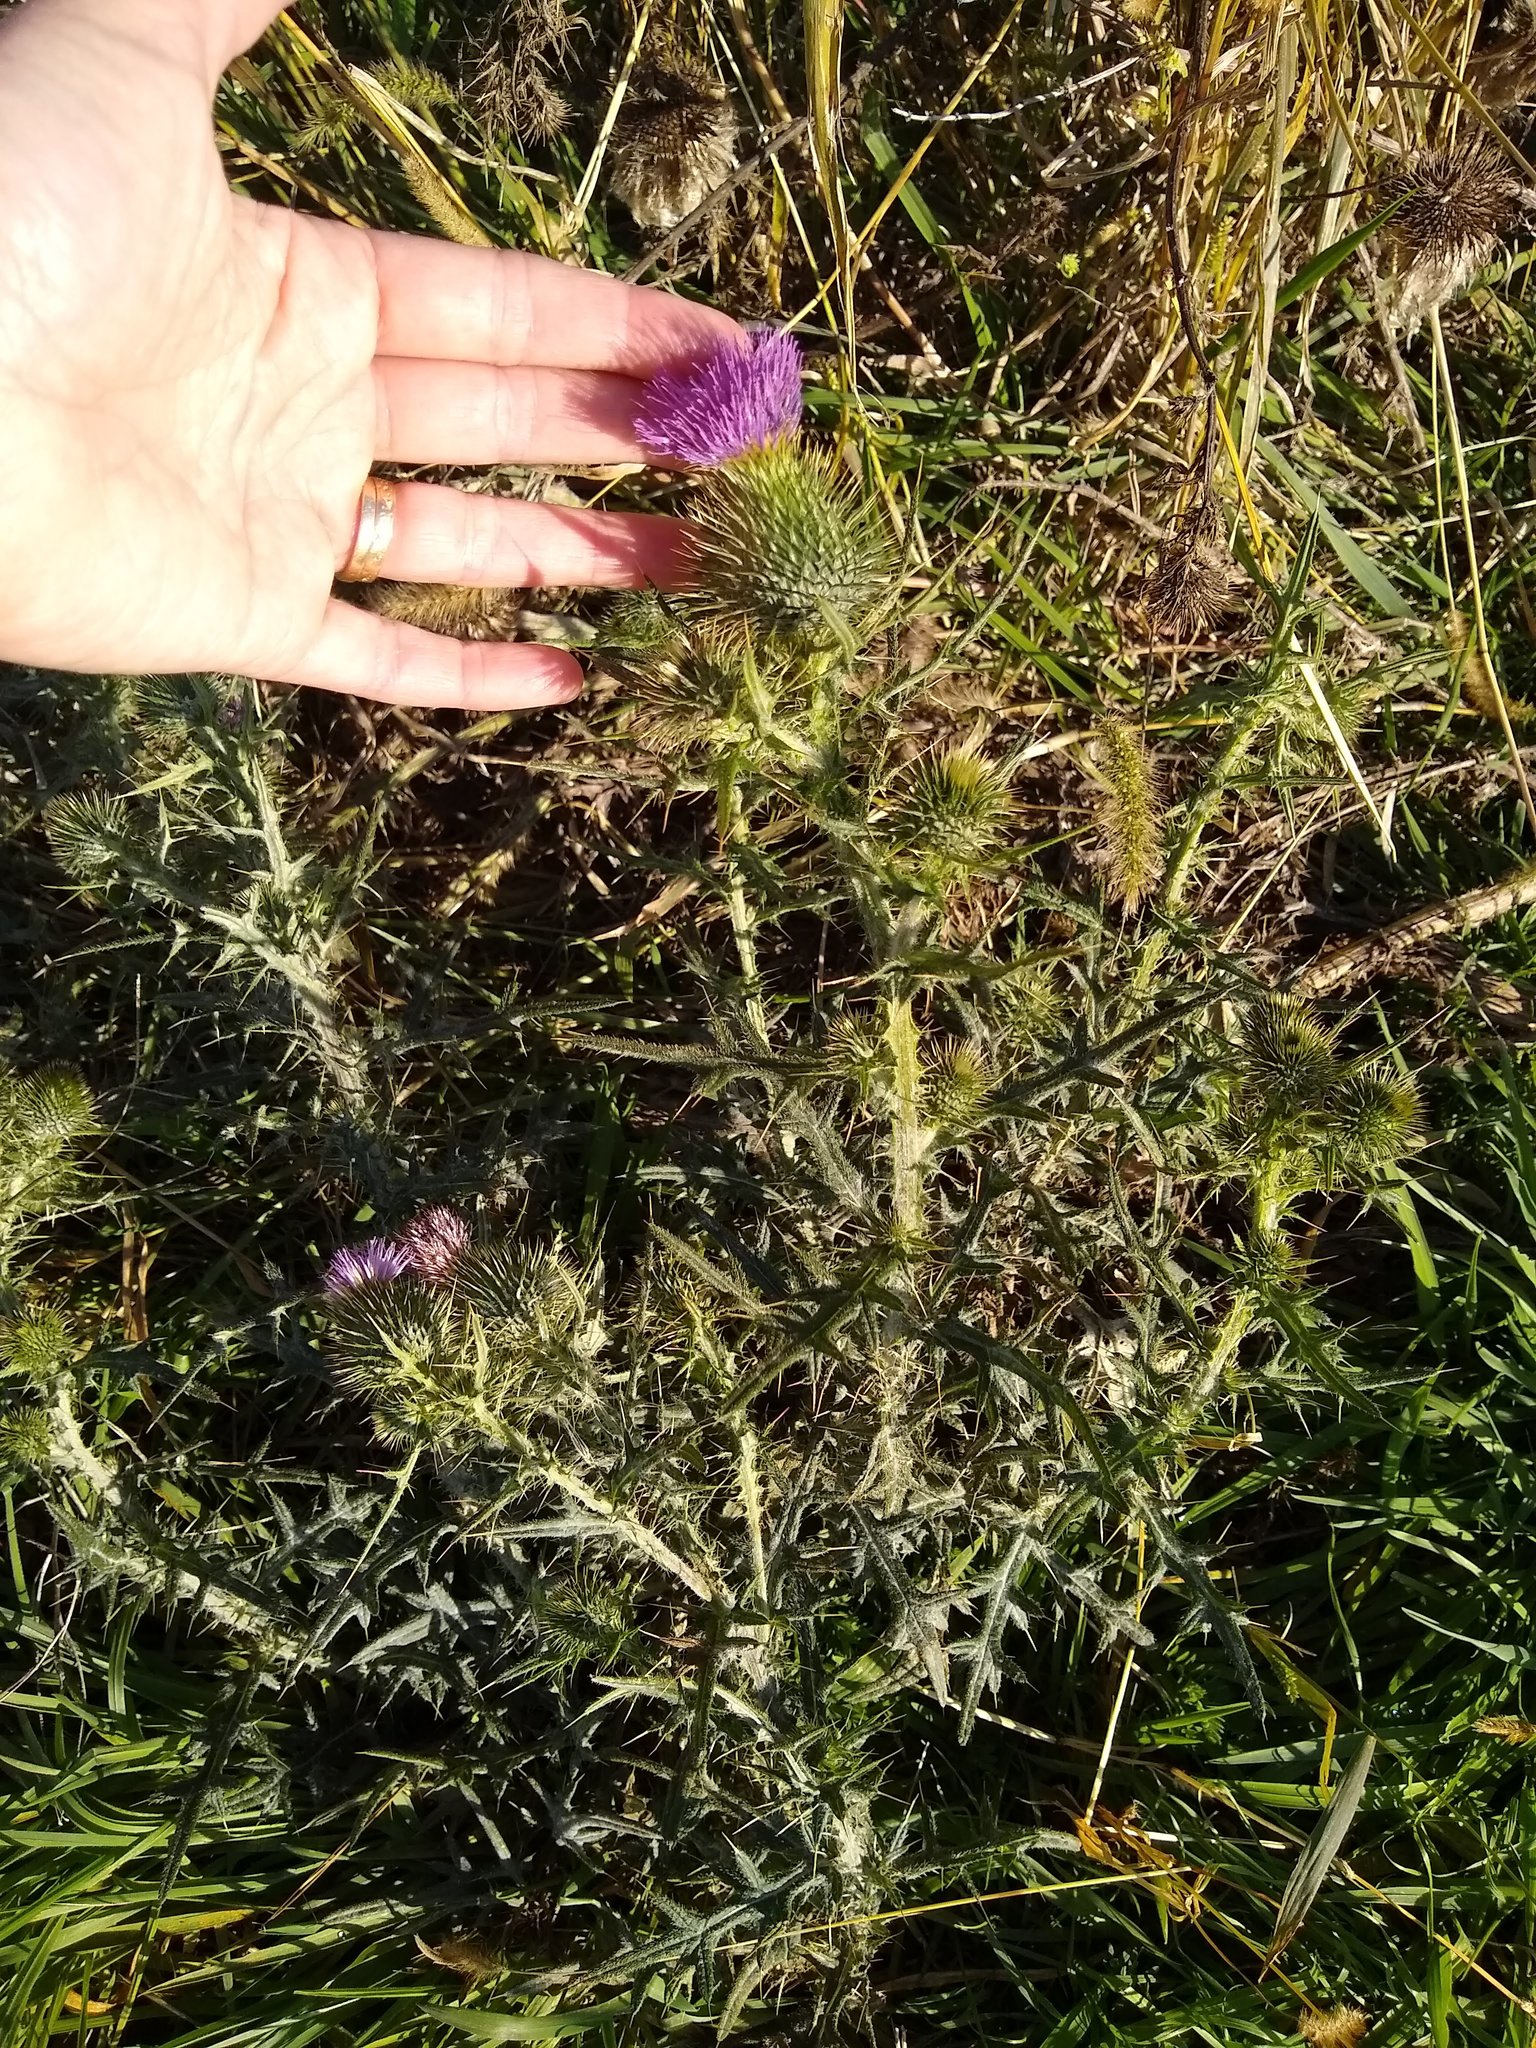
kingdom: Plantae
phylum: Tracheophyta
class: Magnoliopsida
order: Asterales
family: Asteraceae
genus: Cirsium
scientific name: Cirsium vulgare
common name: Bull thistle
